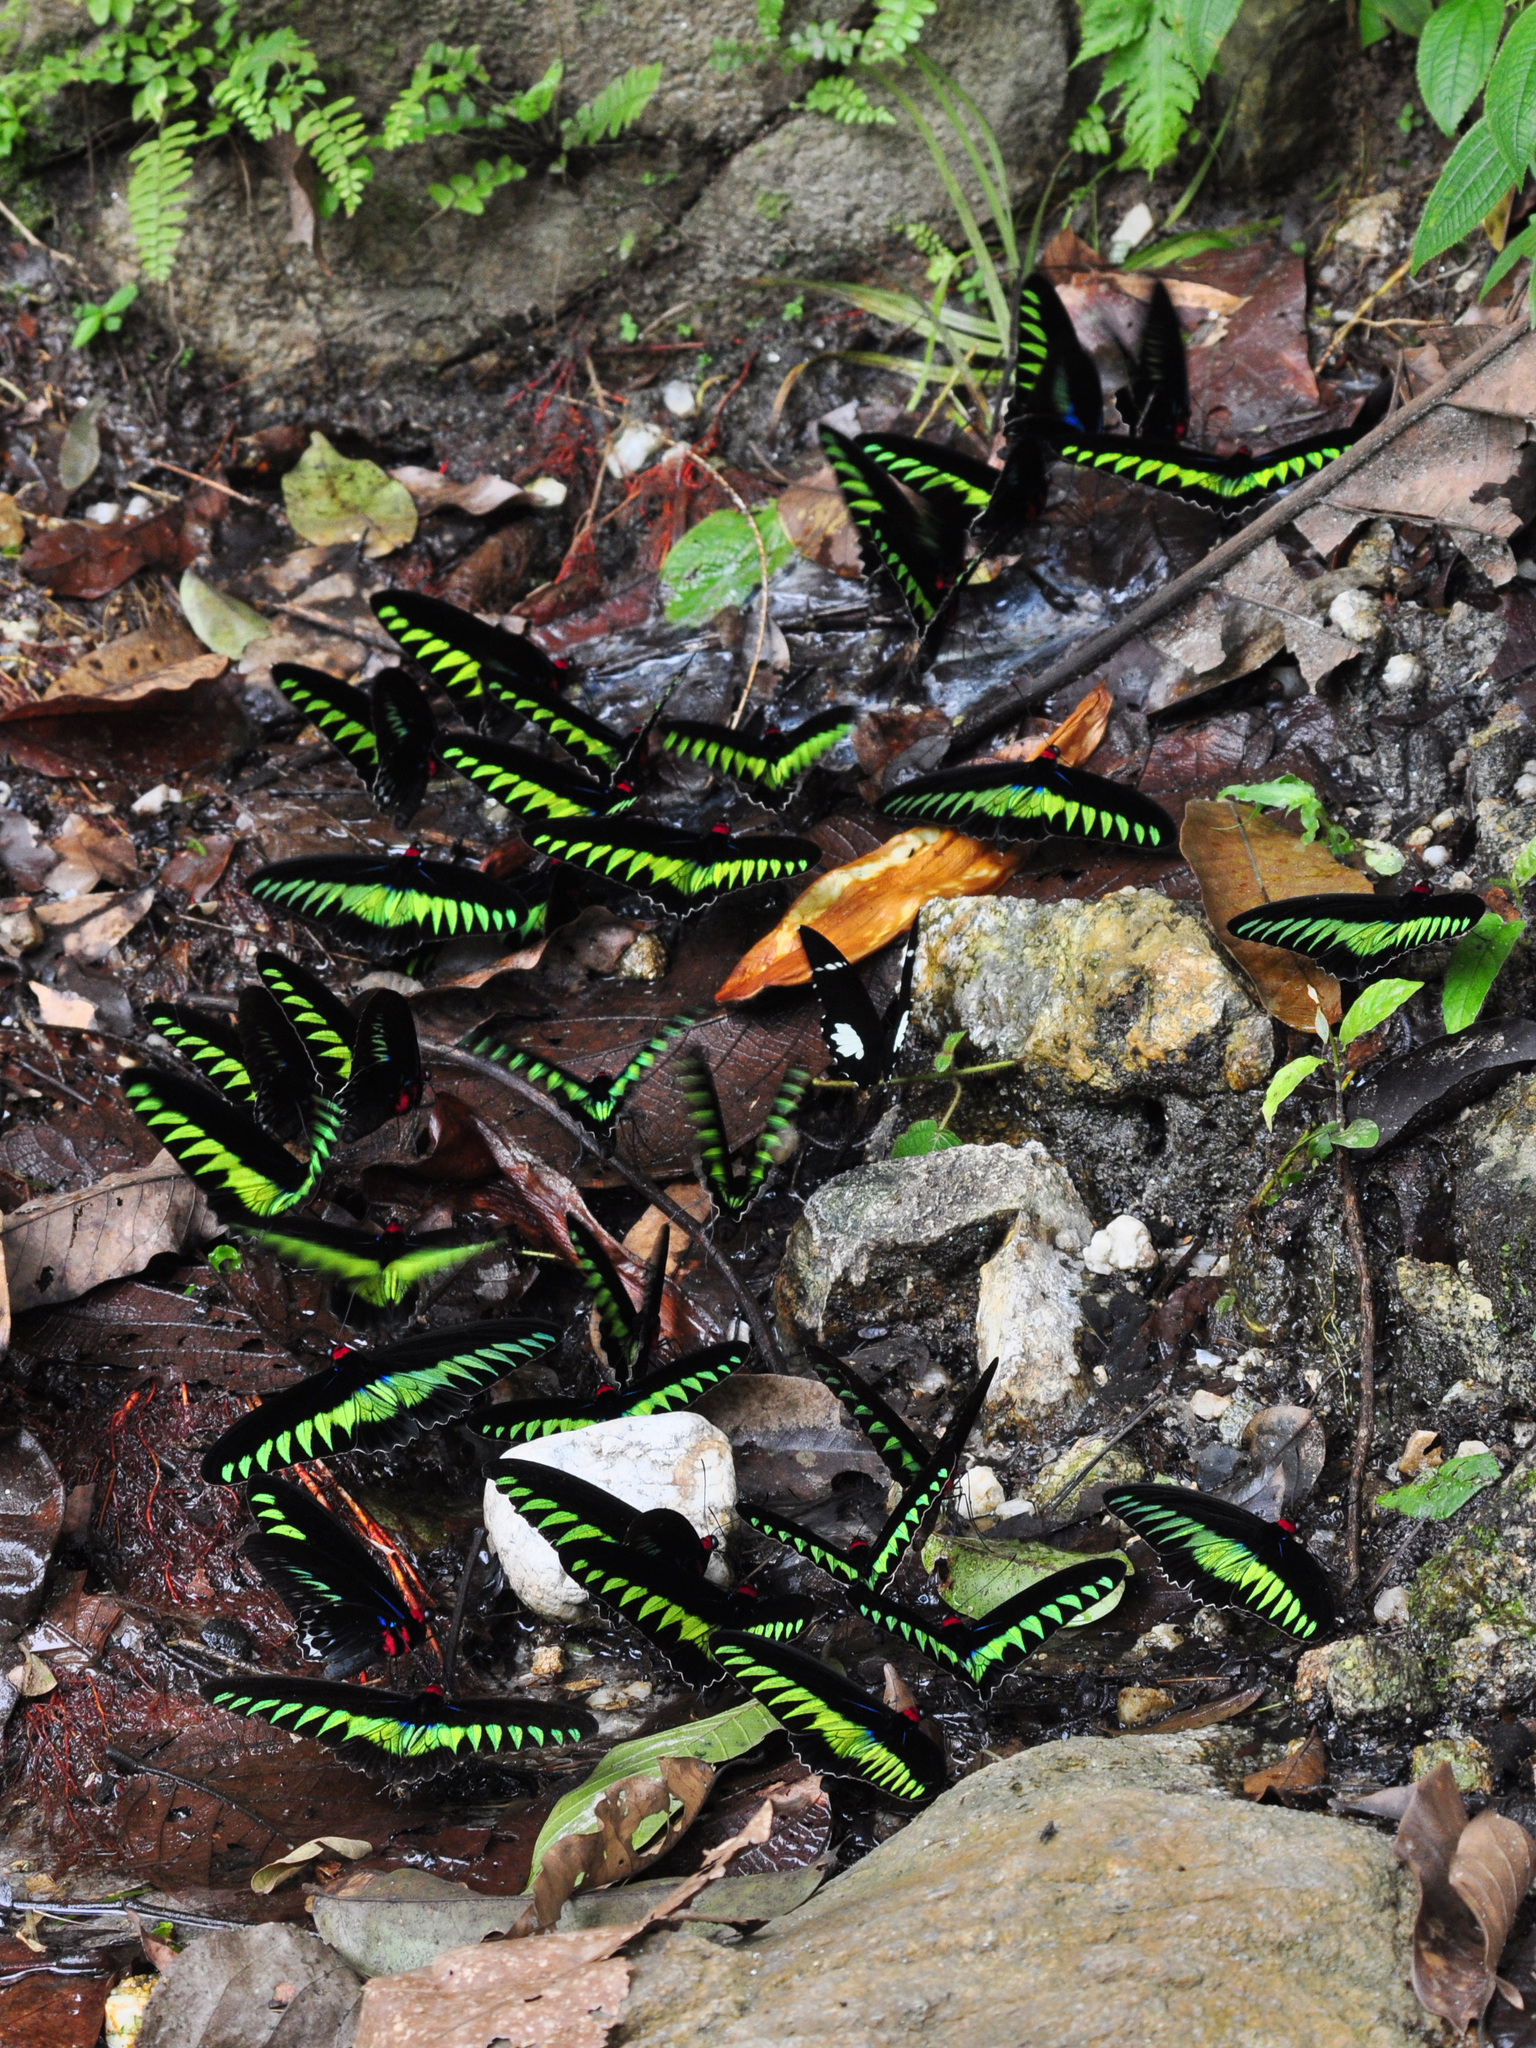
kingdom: Animalia
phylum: Arthropoda
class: Insecta
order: Lepidoptera
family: Papilionidae
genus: Trogonoptera
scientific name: Trogonoptera brookiana
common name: Raja brooke's birdwing
